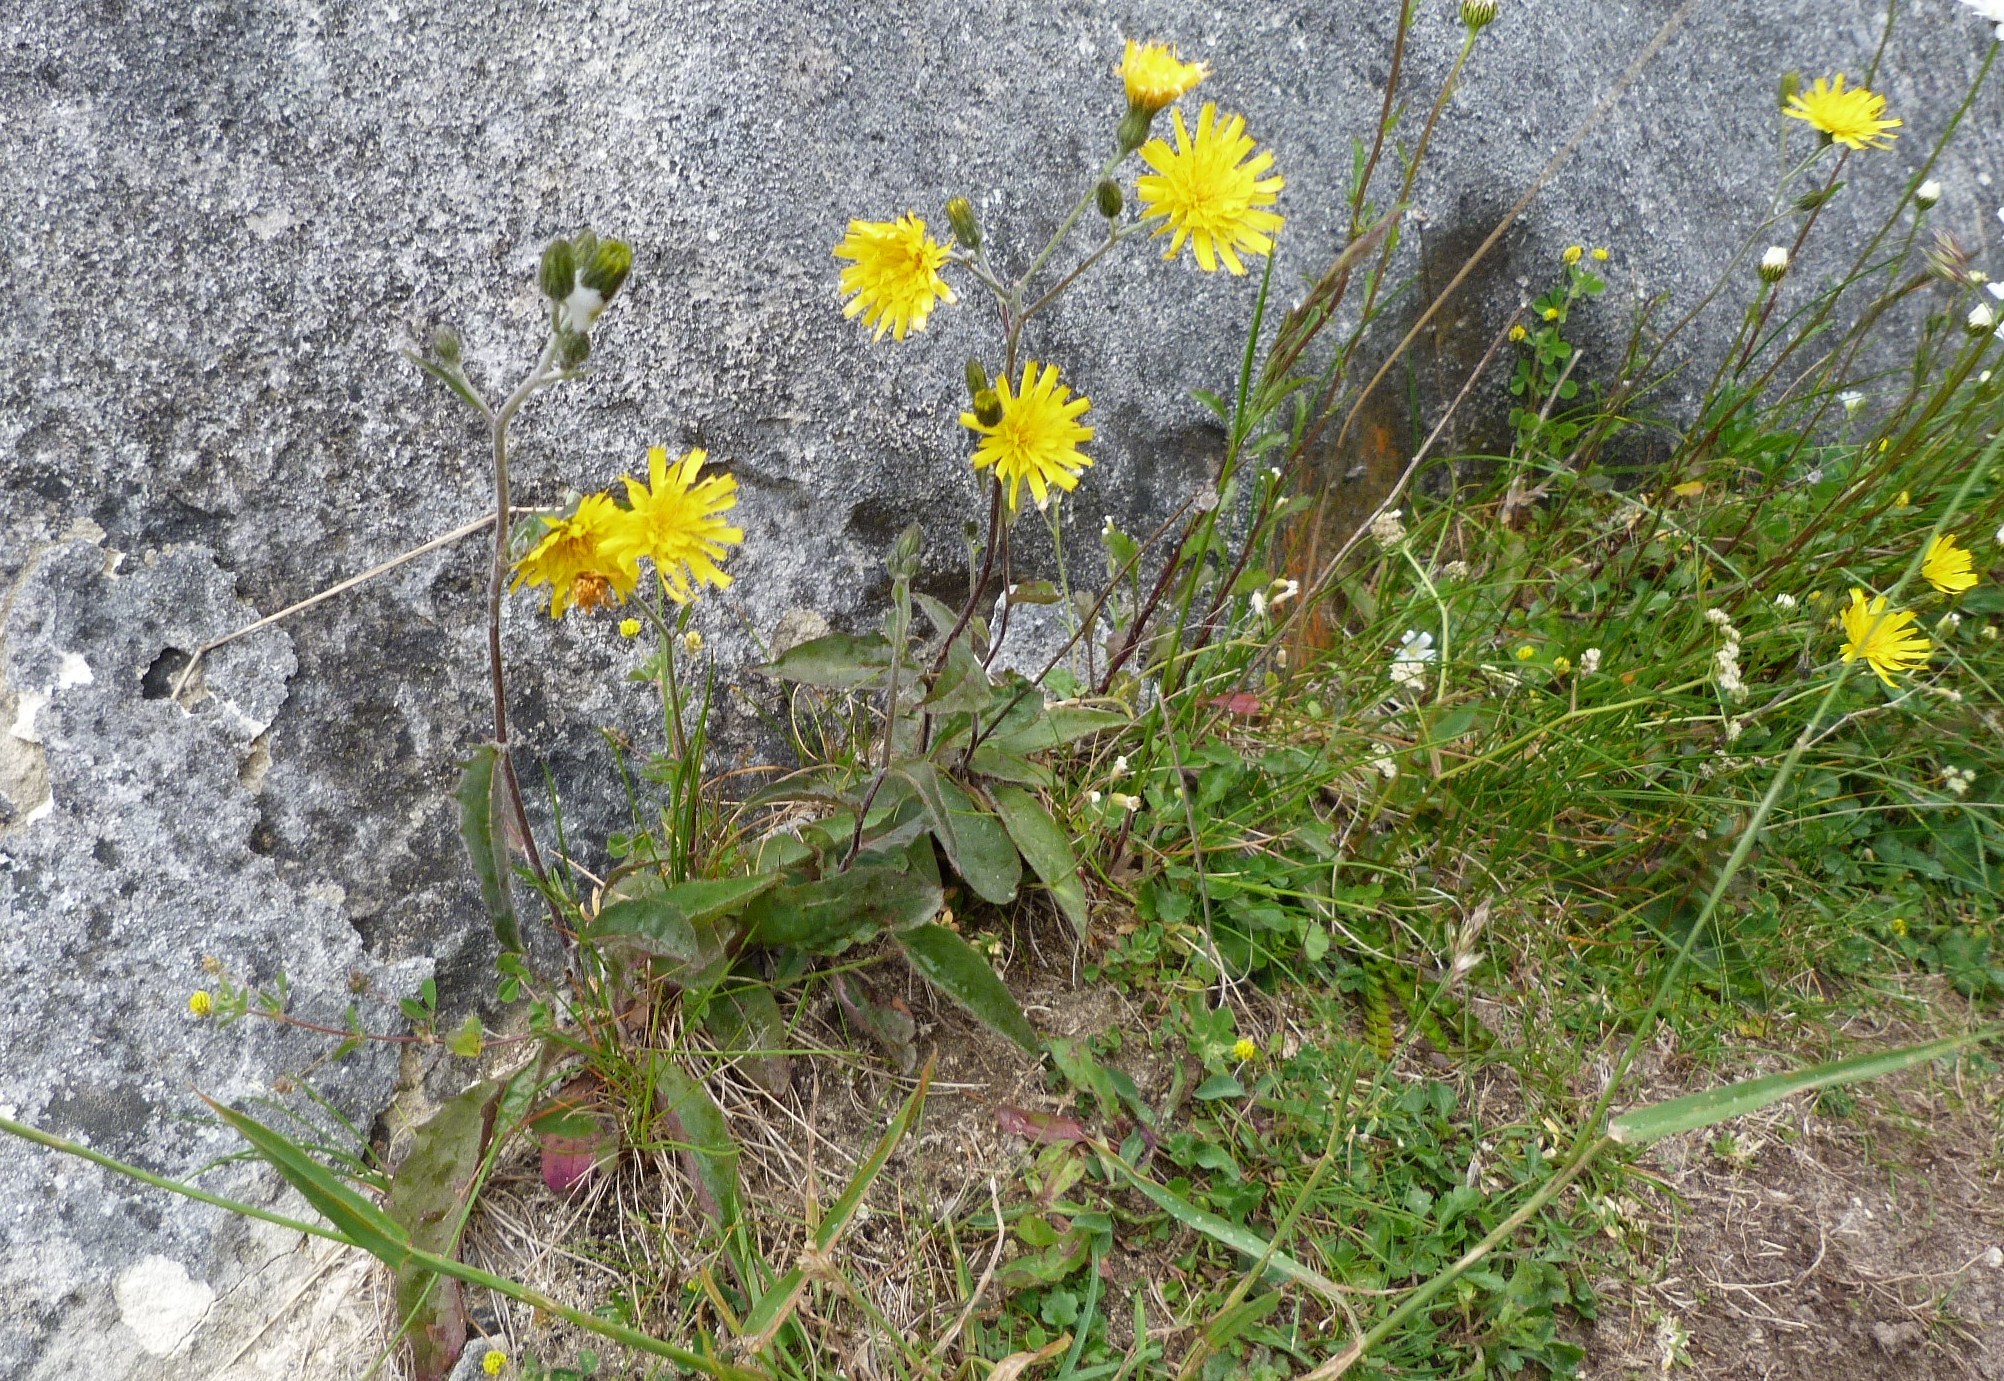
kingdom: Plantae
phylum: Tracheophyta
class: Magnoliopsida
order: Asterales
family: Asteraceae
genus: Hieracium
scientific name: Hieracium lepidulum
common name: Irregular-toothed hawkweed
